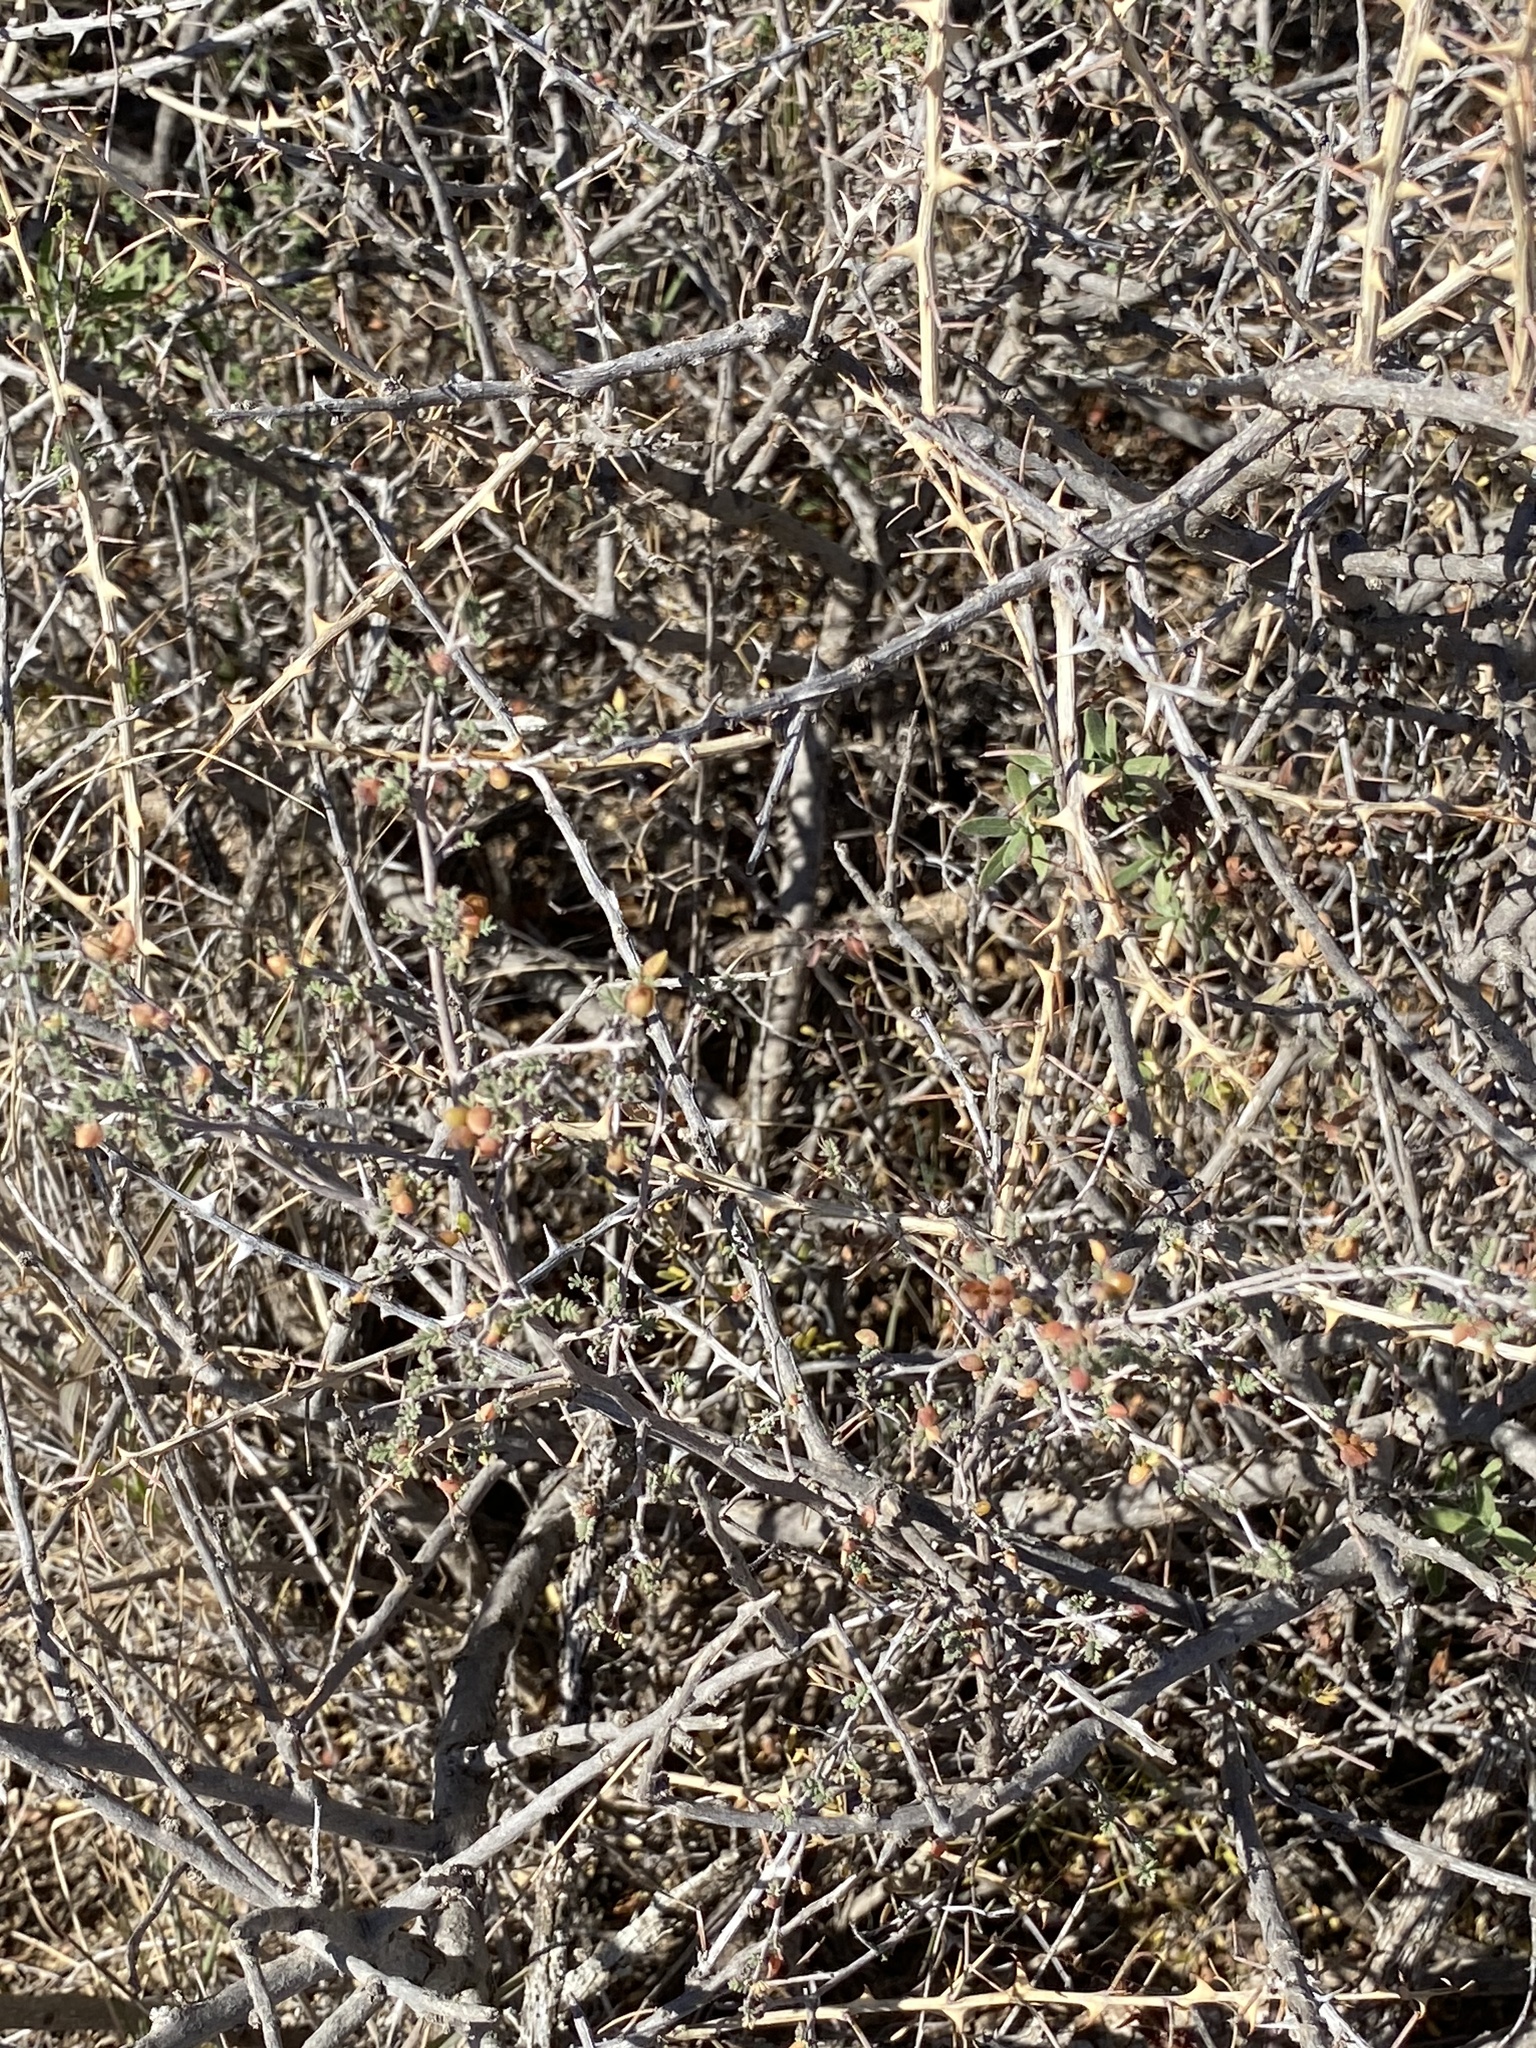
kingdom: Plantae
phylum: Tracheophyta
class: Magnoliopsida
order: Fabales
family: Fabaceae
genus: Mimosa
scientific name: Mimosa borealis
